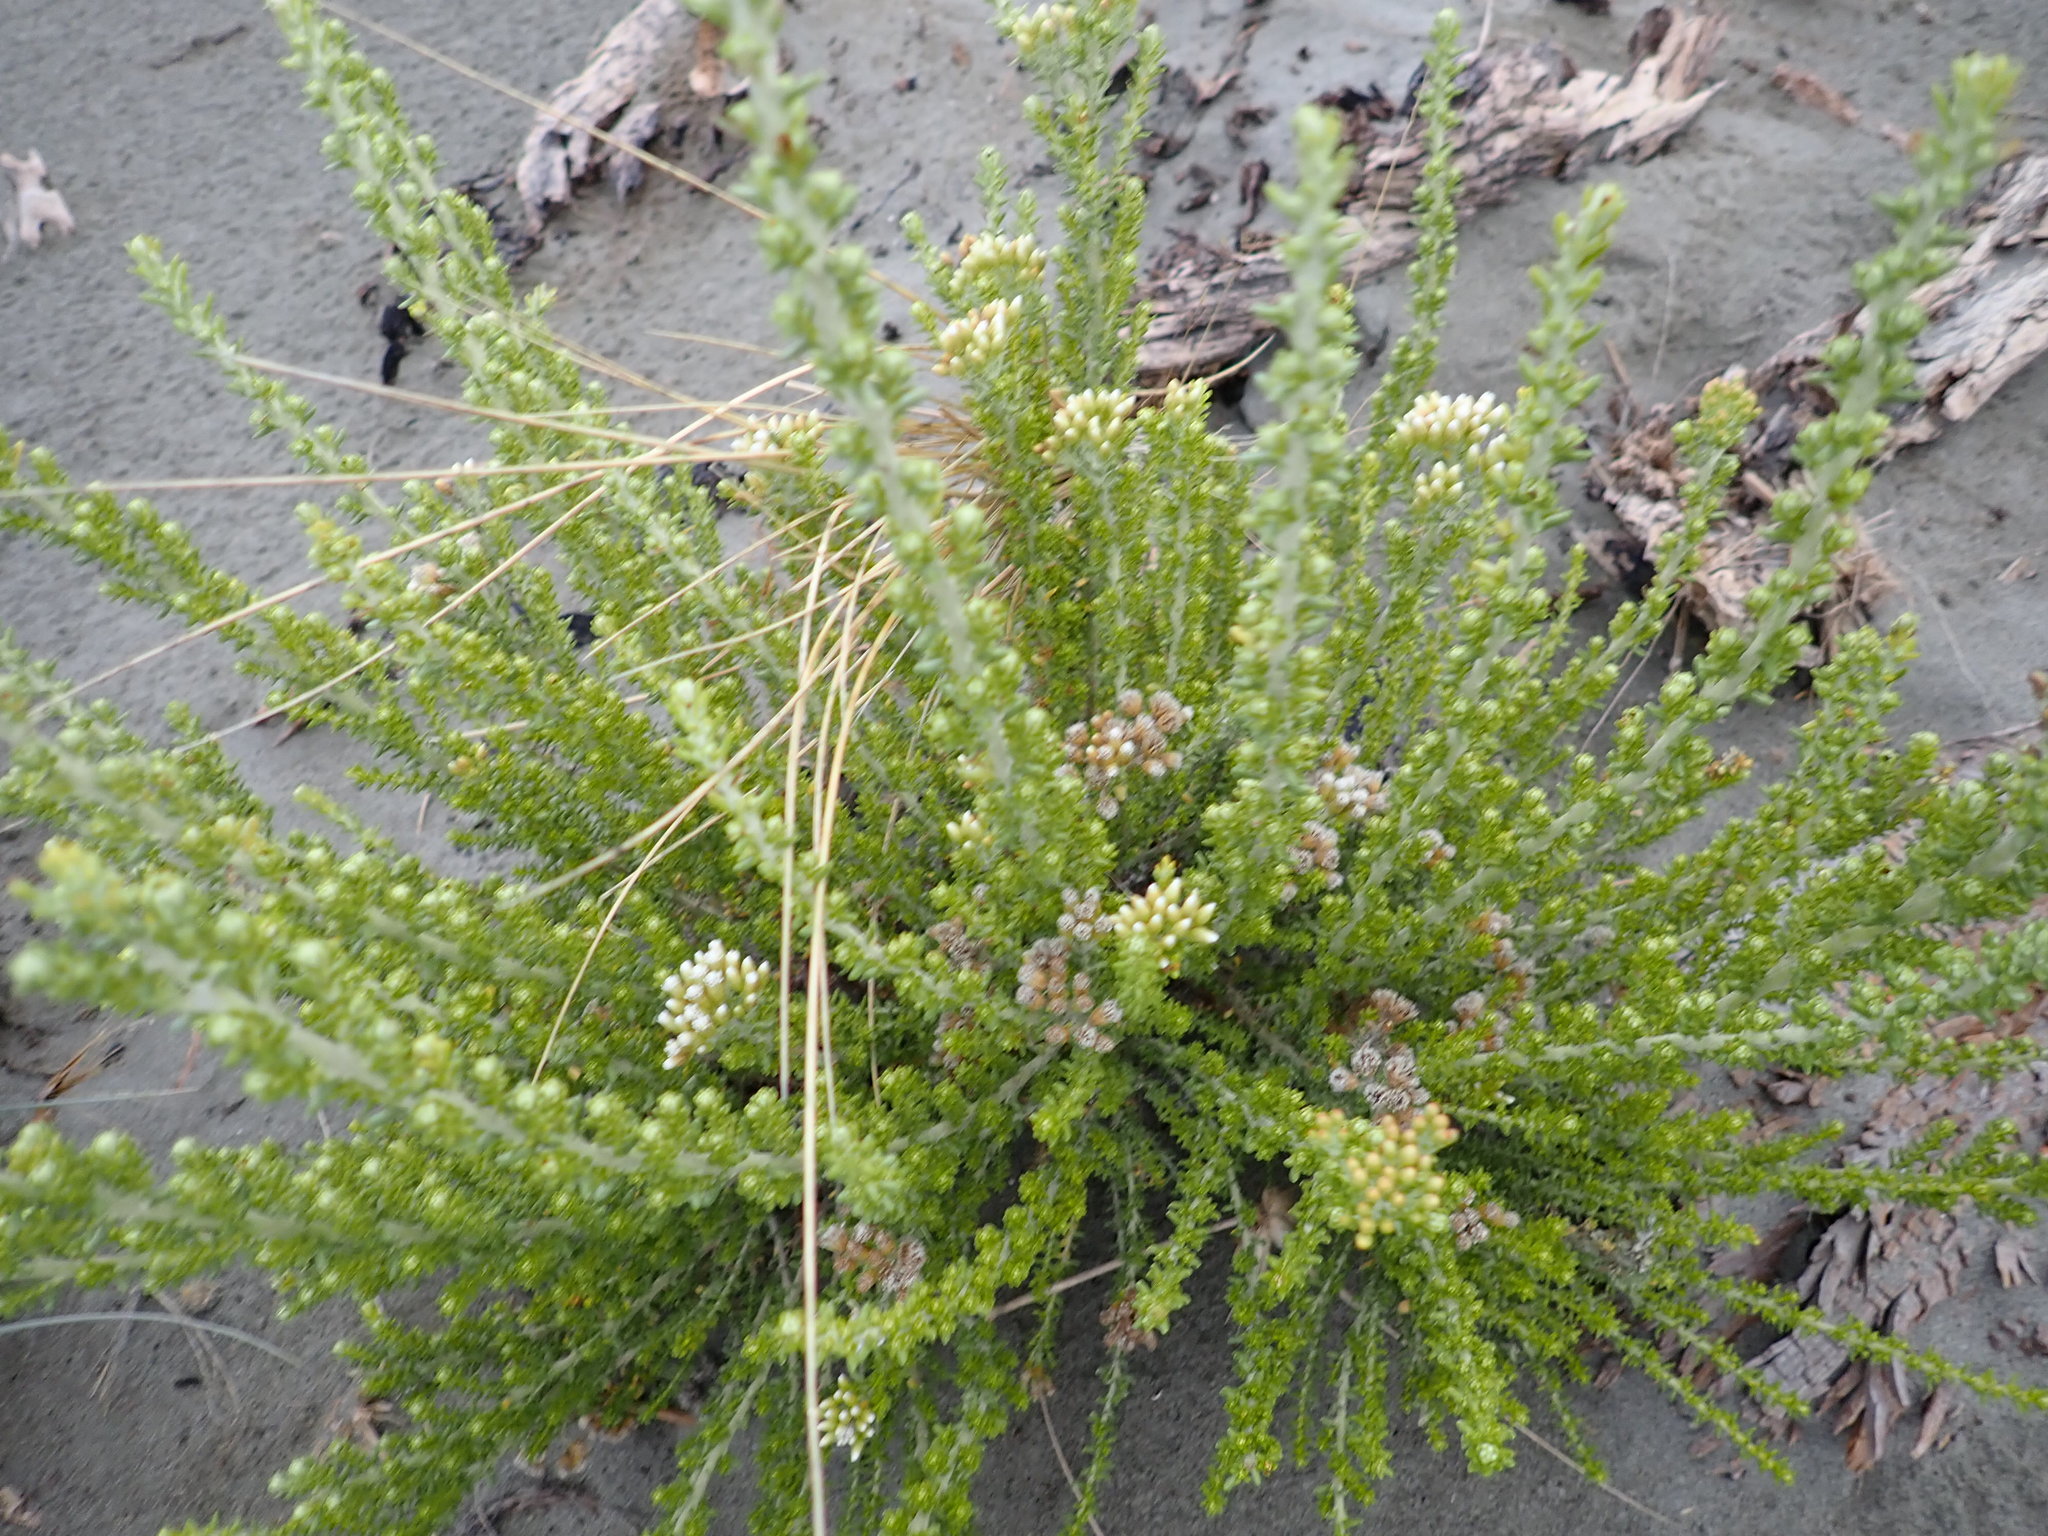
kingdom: Plantae
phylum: Tracheophyta
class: Magnoliopsida
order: Asterales
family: Asteraceae
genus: Ozothamnus
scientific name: Ozothamnus leptophyllus
